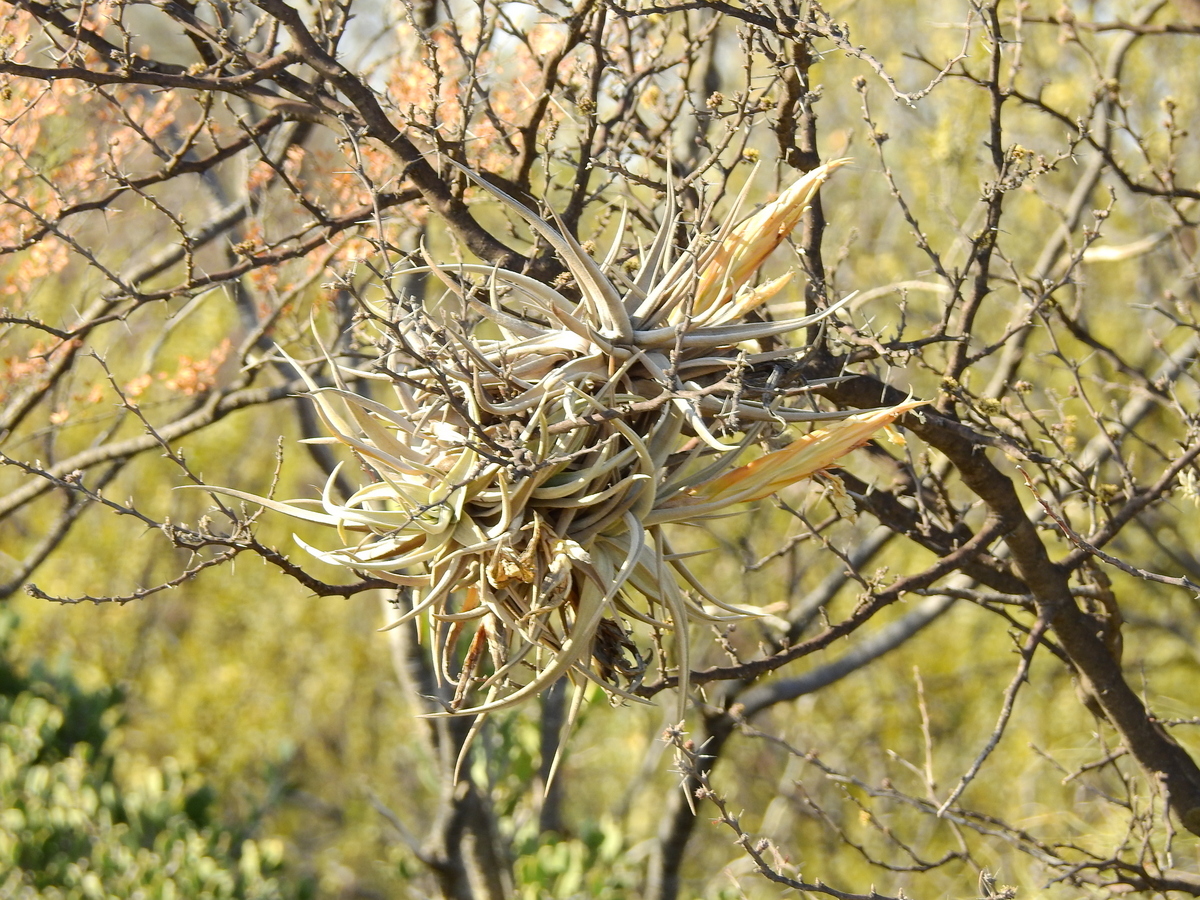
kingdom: Plantae
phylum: Tracheophyta
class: Liliopsida
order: Poales
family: Bromeliaceae
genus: Tillandsia
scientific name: Tillandsia xiphioides
